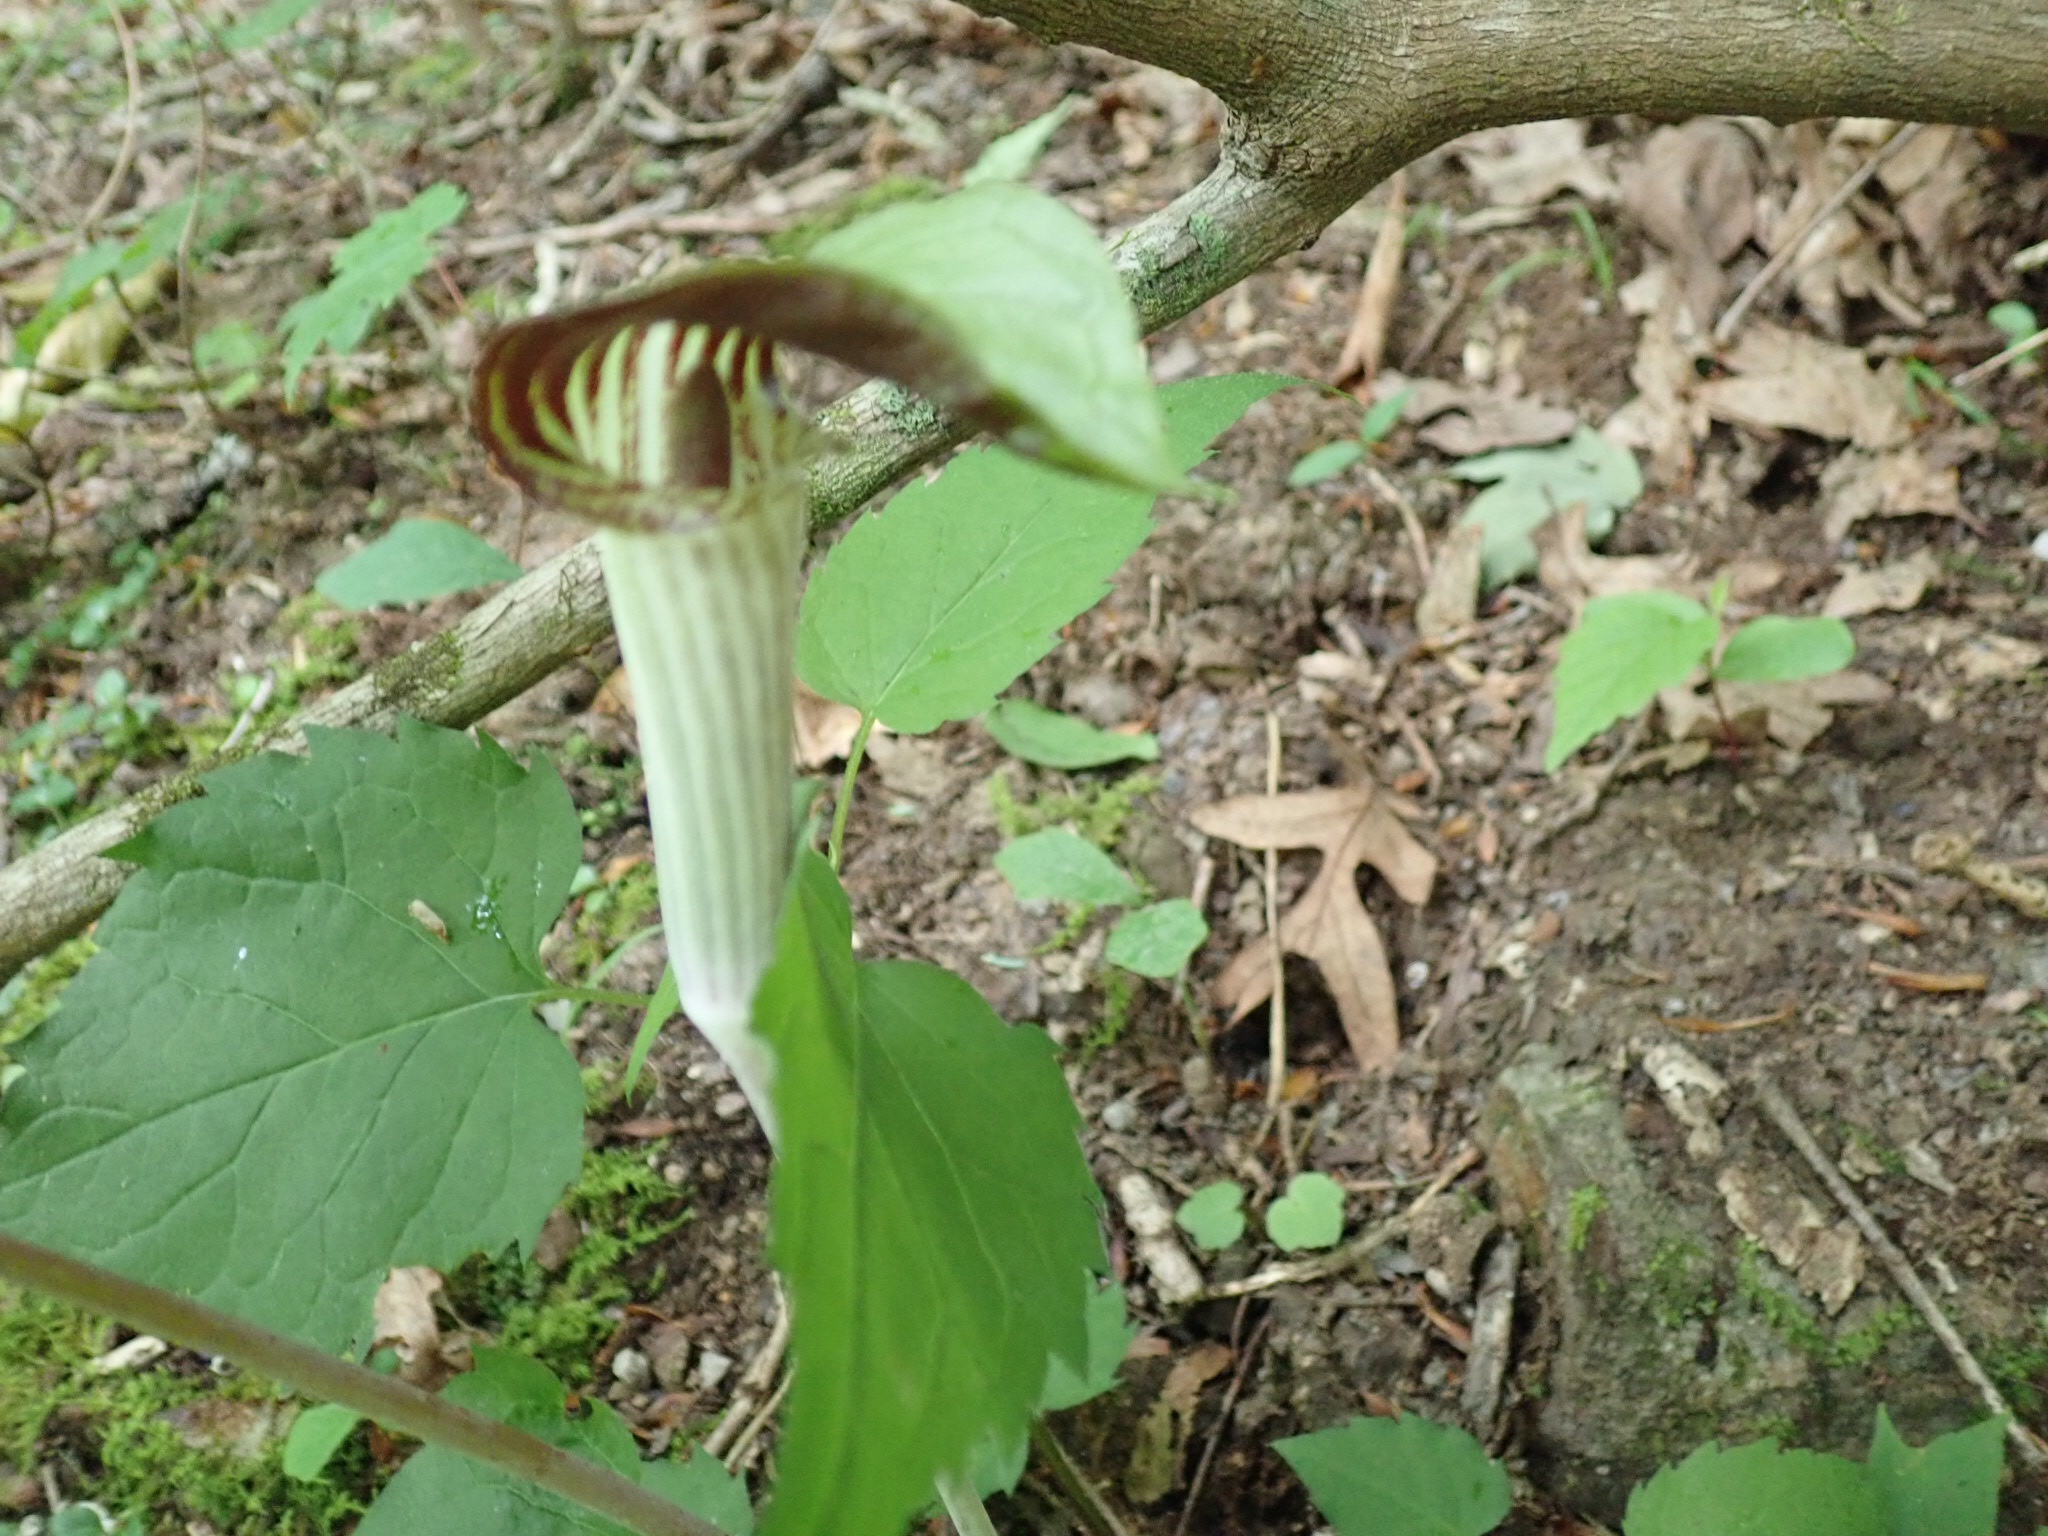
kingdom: Plantae
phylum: Tracheophyta
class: Liliopsida
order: Alismatales
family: Araceae
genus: Arisaema
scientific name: Arisaema triphyllum
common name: Jack-in-the-pulpit
